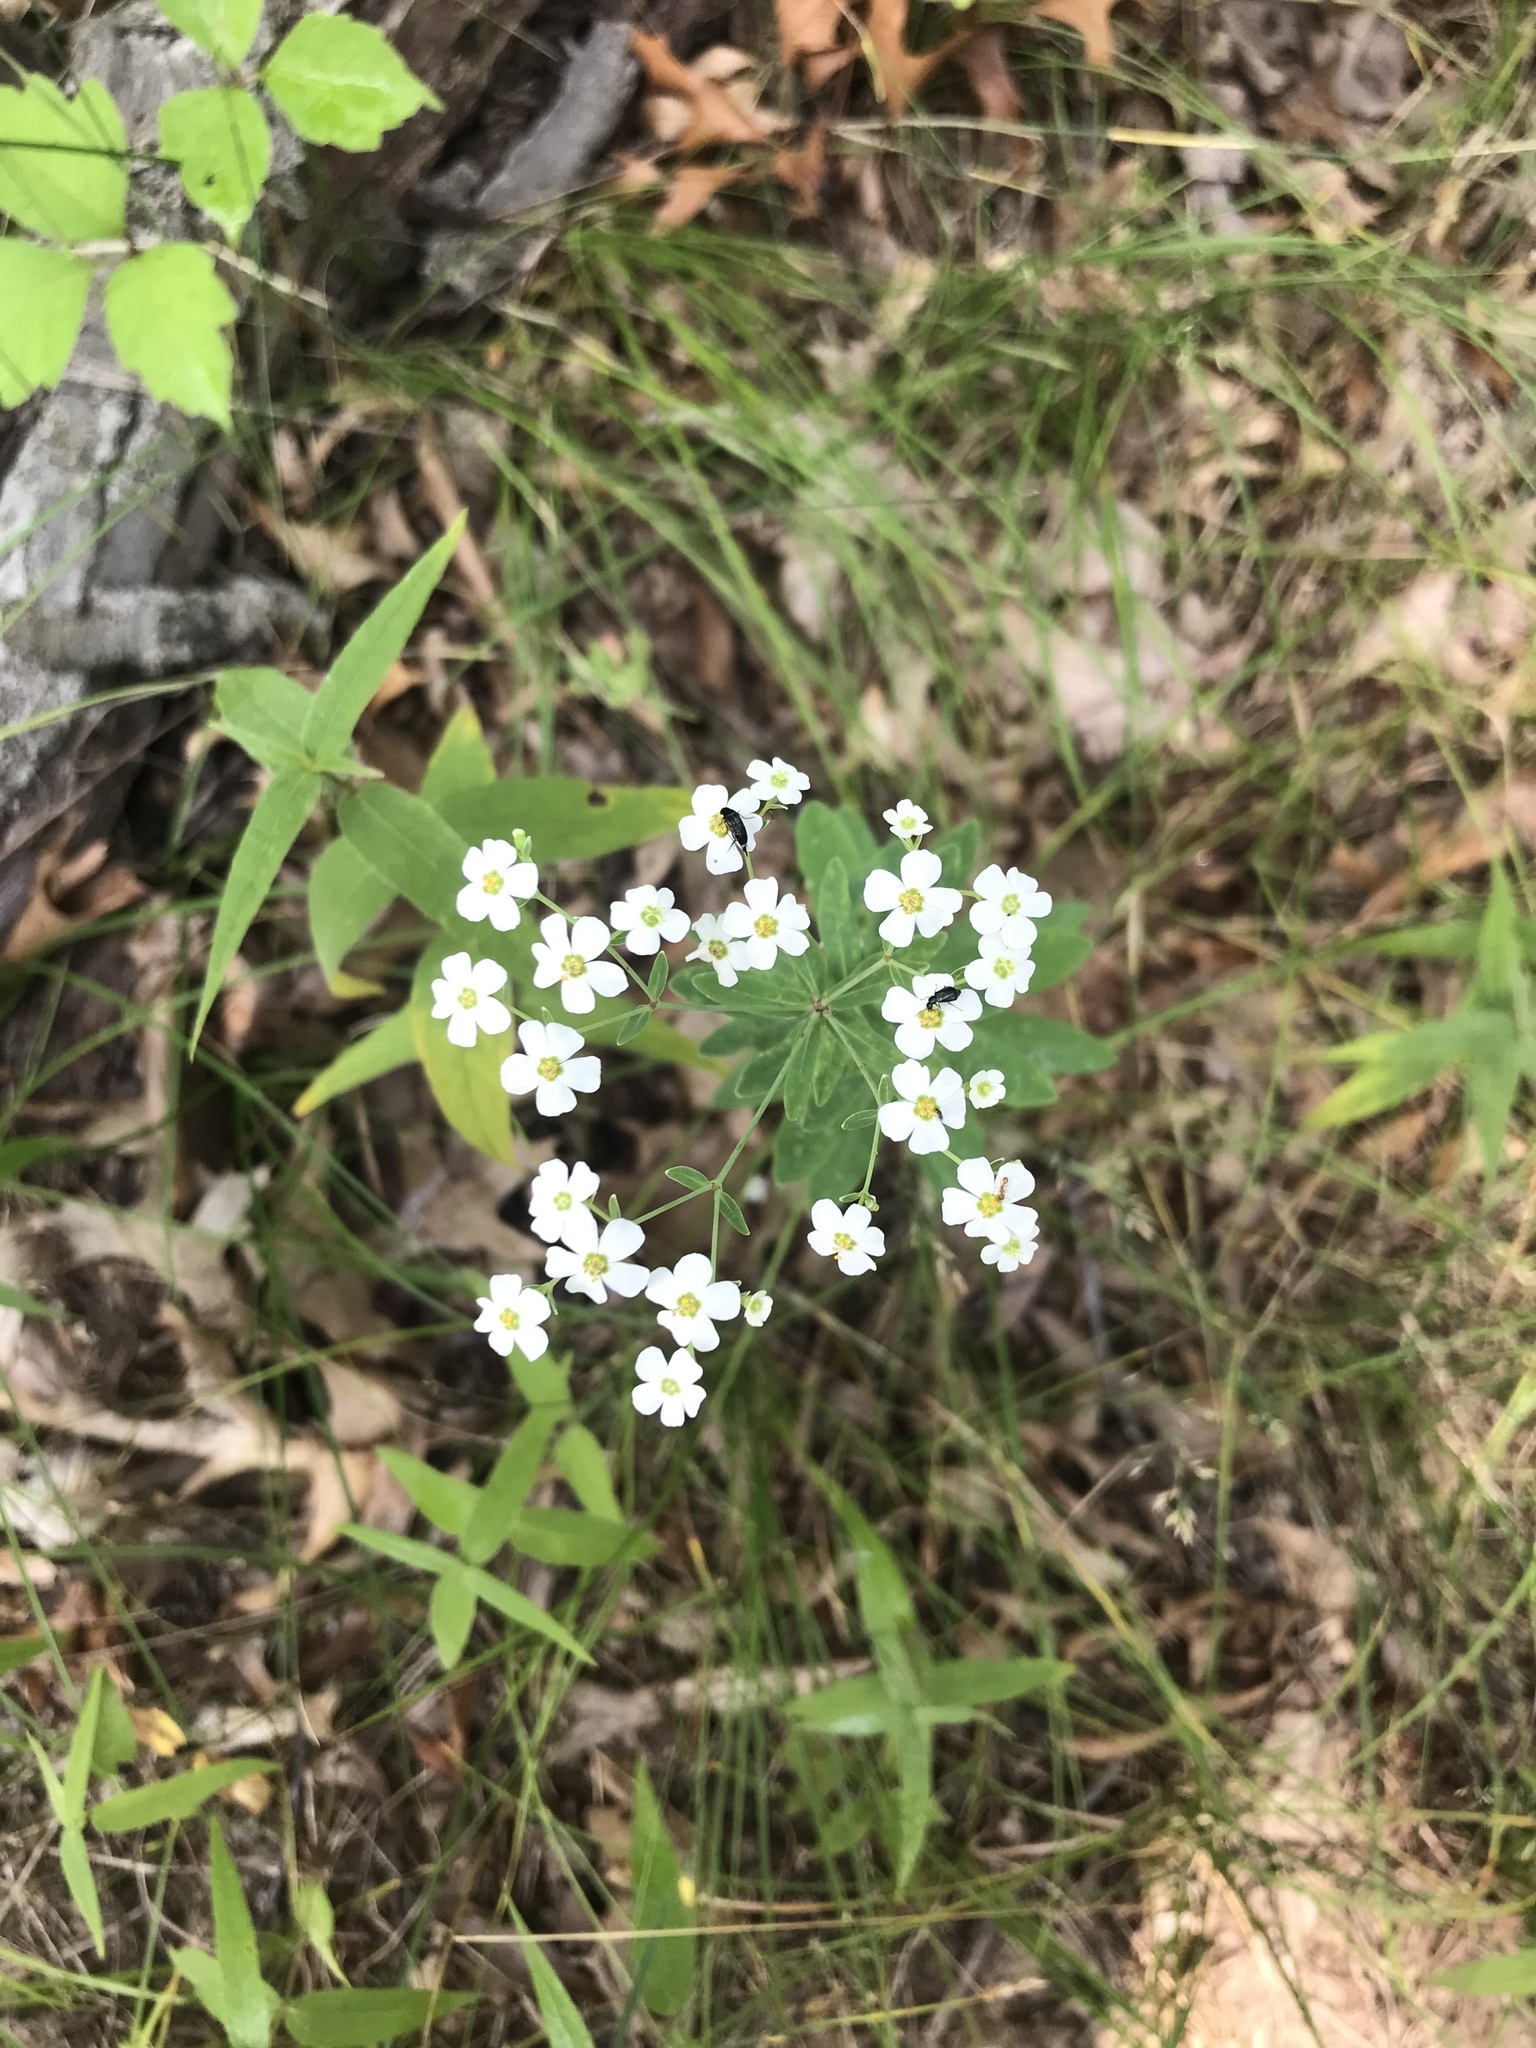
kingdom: Plantae
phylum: Tracheophyta
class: Magnoliopsida
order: Malpighiales
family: Euphorbiaceae
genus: Euphorbia
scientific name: Euphorbia corollata
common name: Flowering spurge
